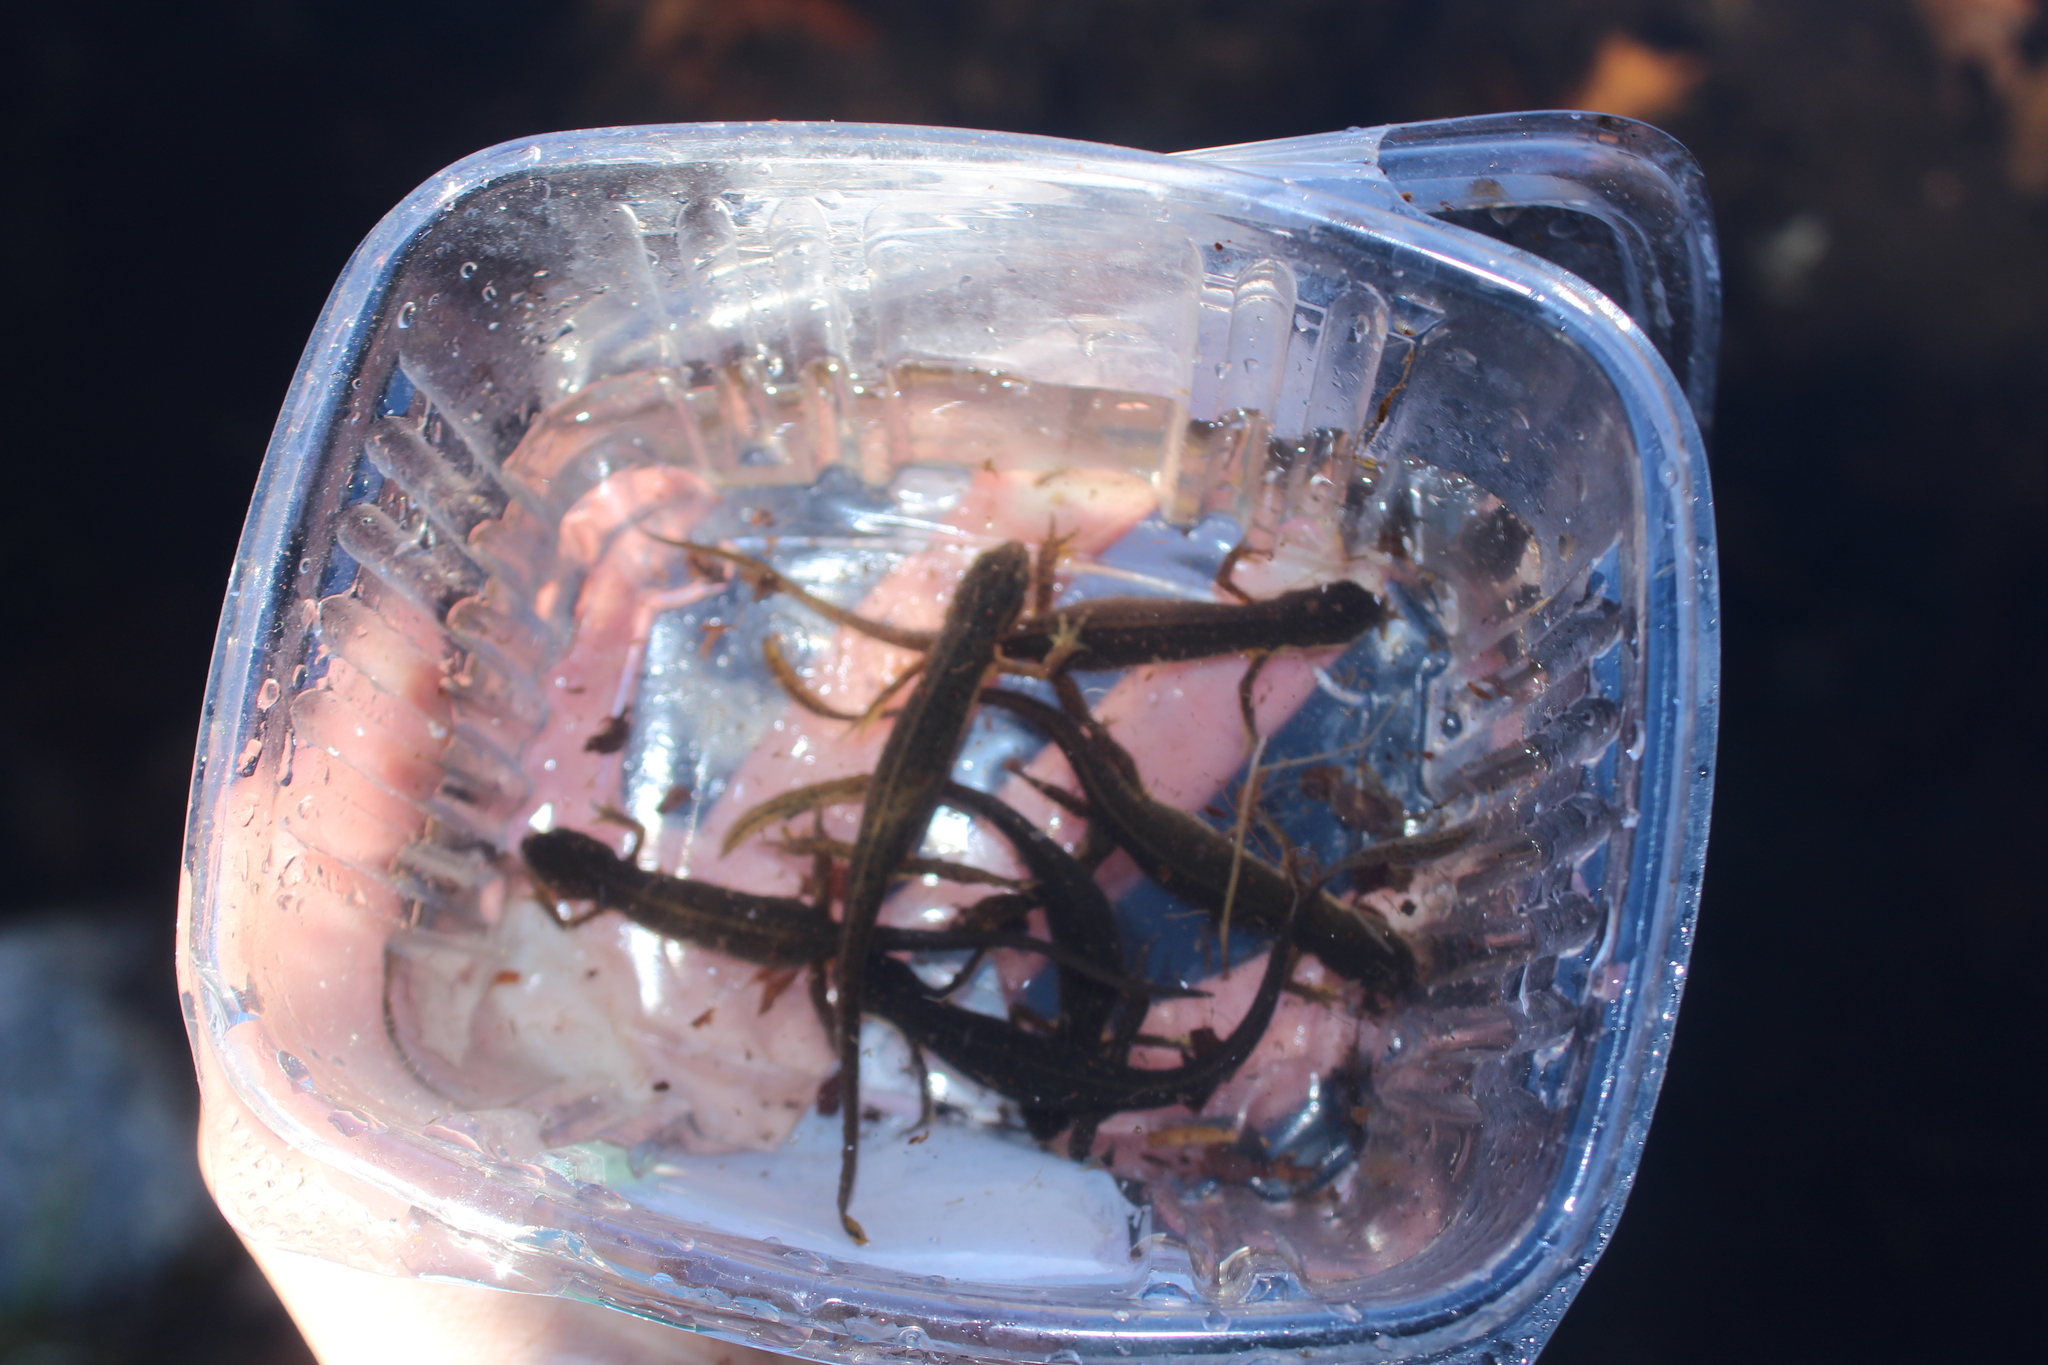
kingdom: Animalia
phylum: Chordata
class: Amphibia
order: Caudata
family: Salamandridae
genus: Notophthalmus
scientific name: Notophthalmus viridescens
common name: Eastern newt
